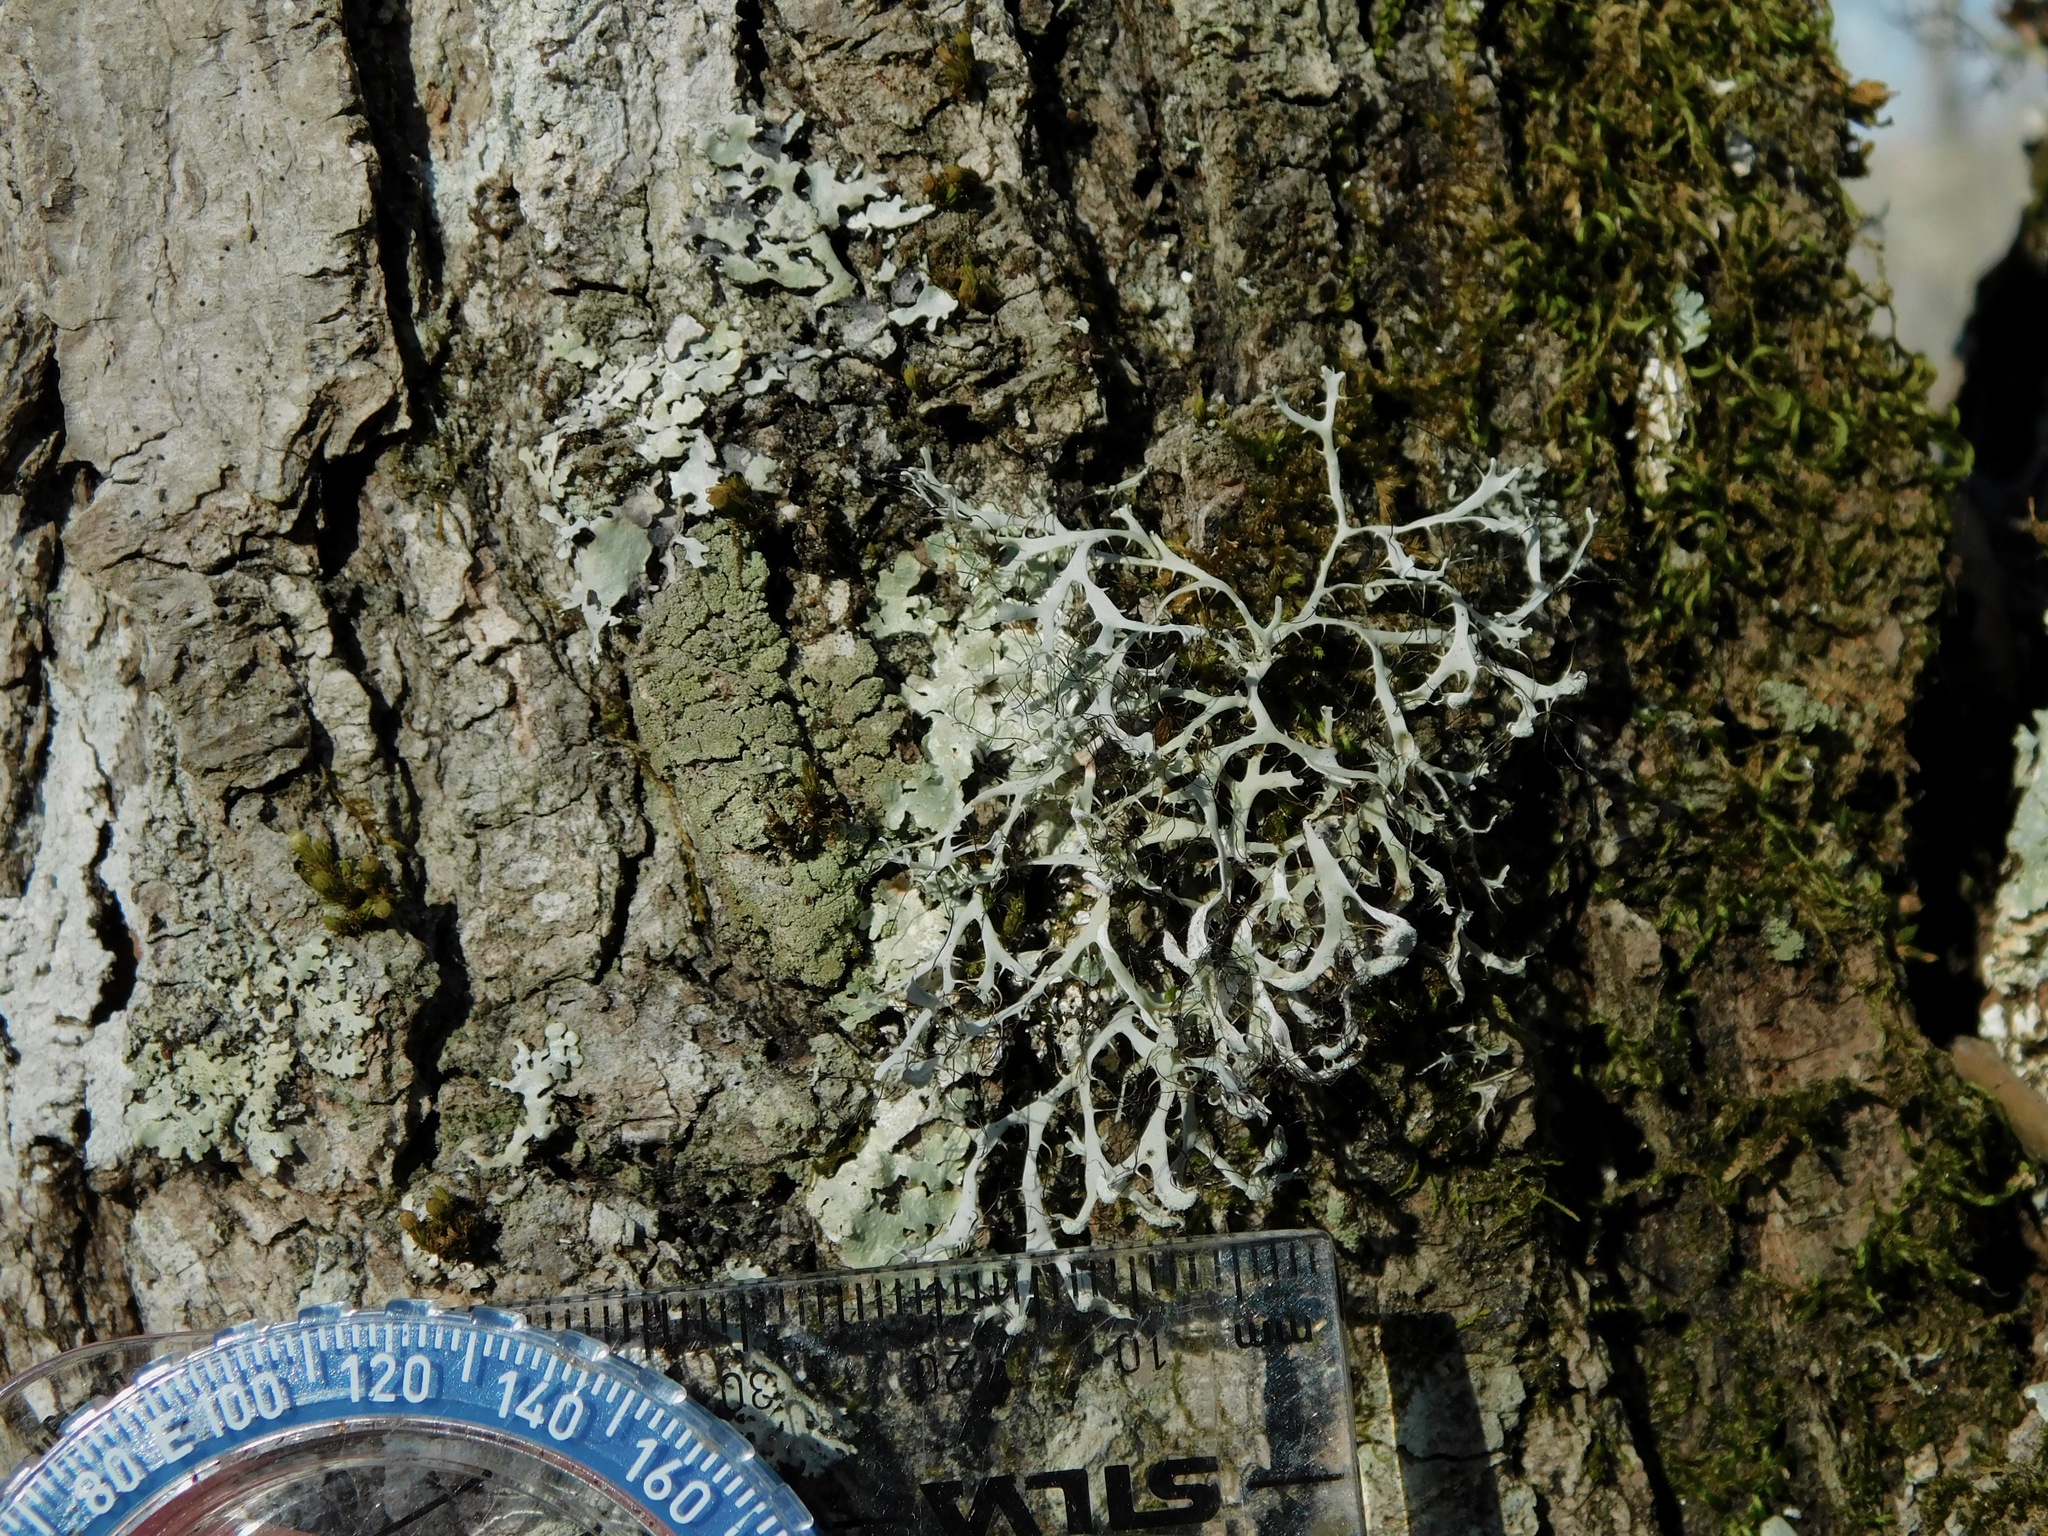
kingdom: Fungi
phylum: Ascomycota
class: Lecanoromycetes
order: Caliciales
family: Physciaceae
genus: Leucodermia
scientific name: Leucodermia appalachensis
